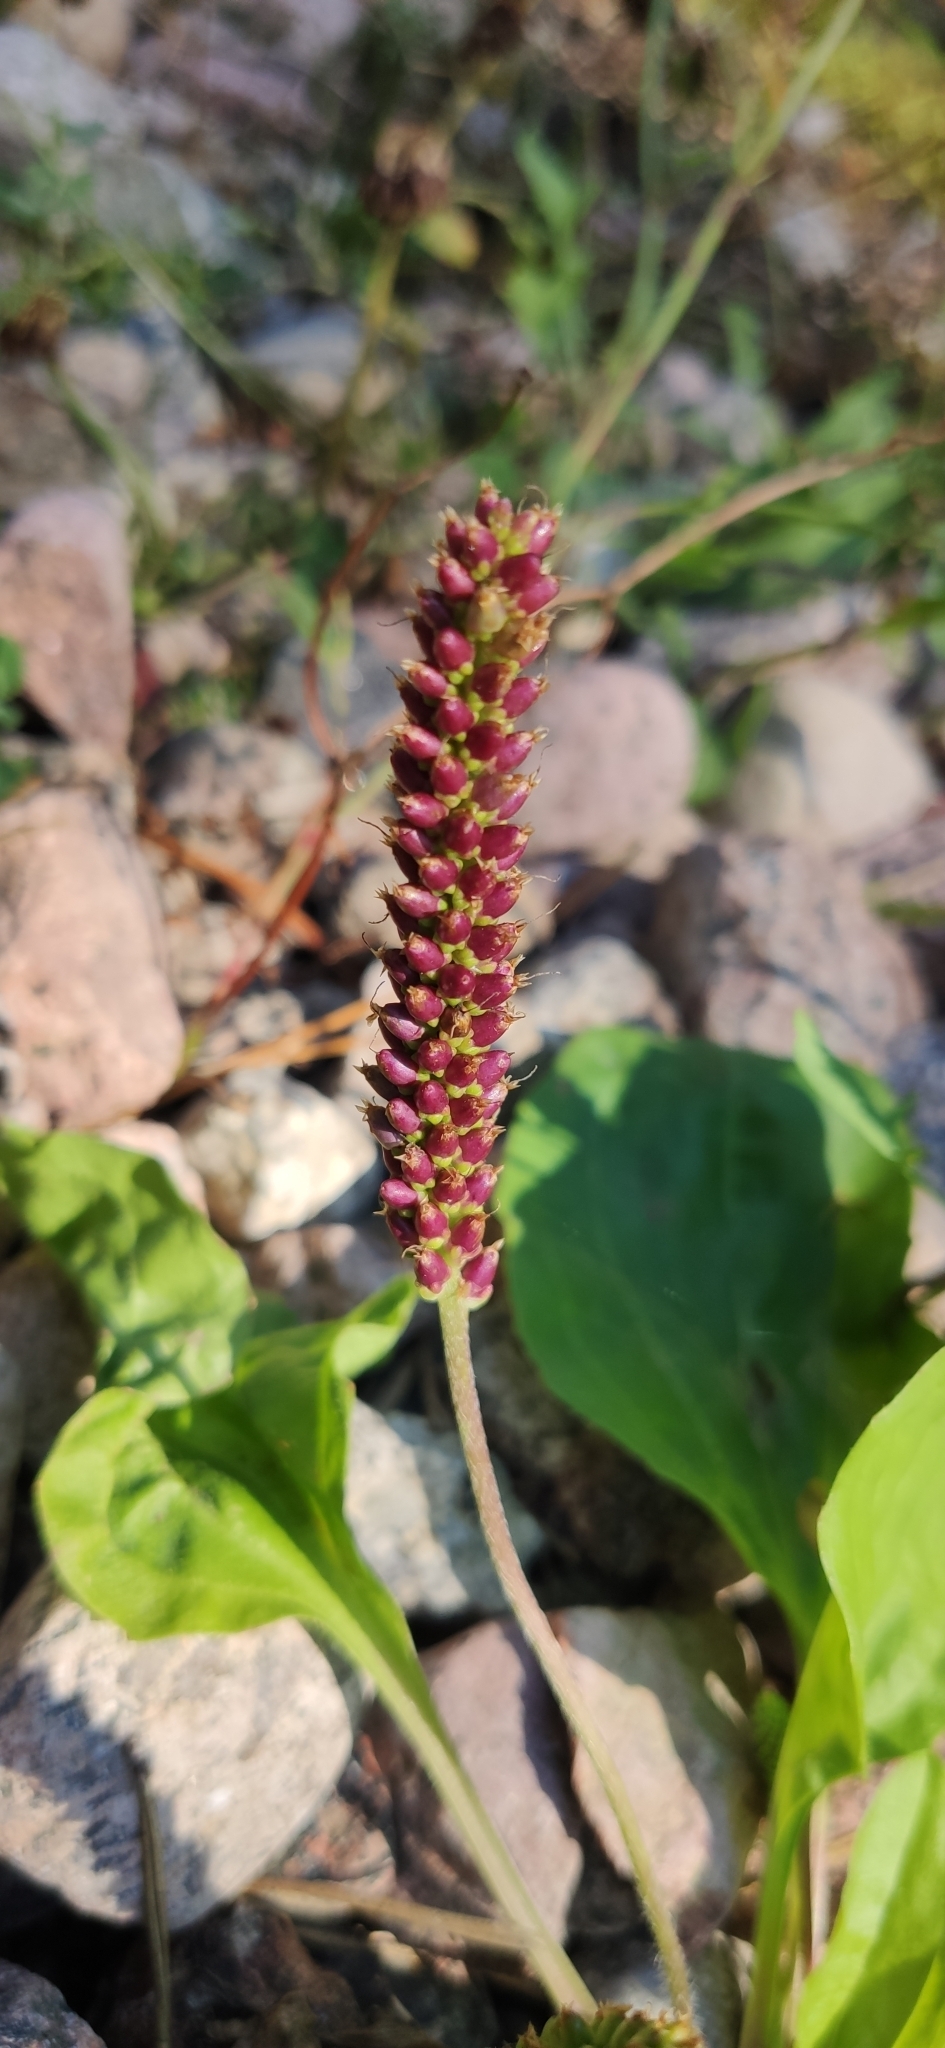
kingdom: Plantae
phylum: Tracheophyta
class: Magnoliopsida
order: Lamiales
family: Plantaginaceae
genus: Plantago
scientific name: Plantago major
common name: Common plantain
